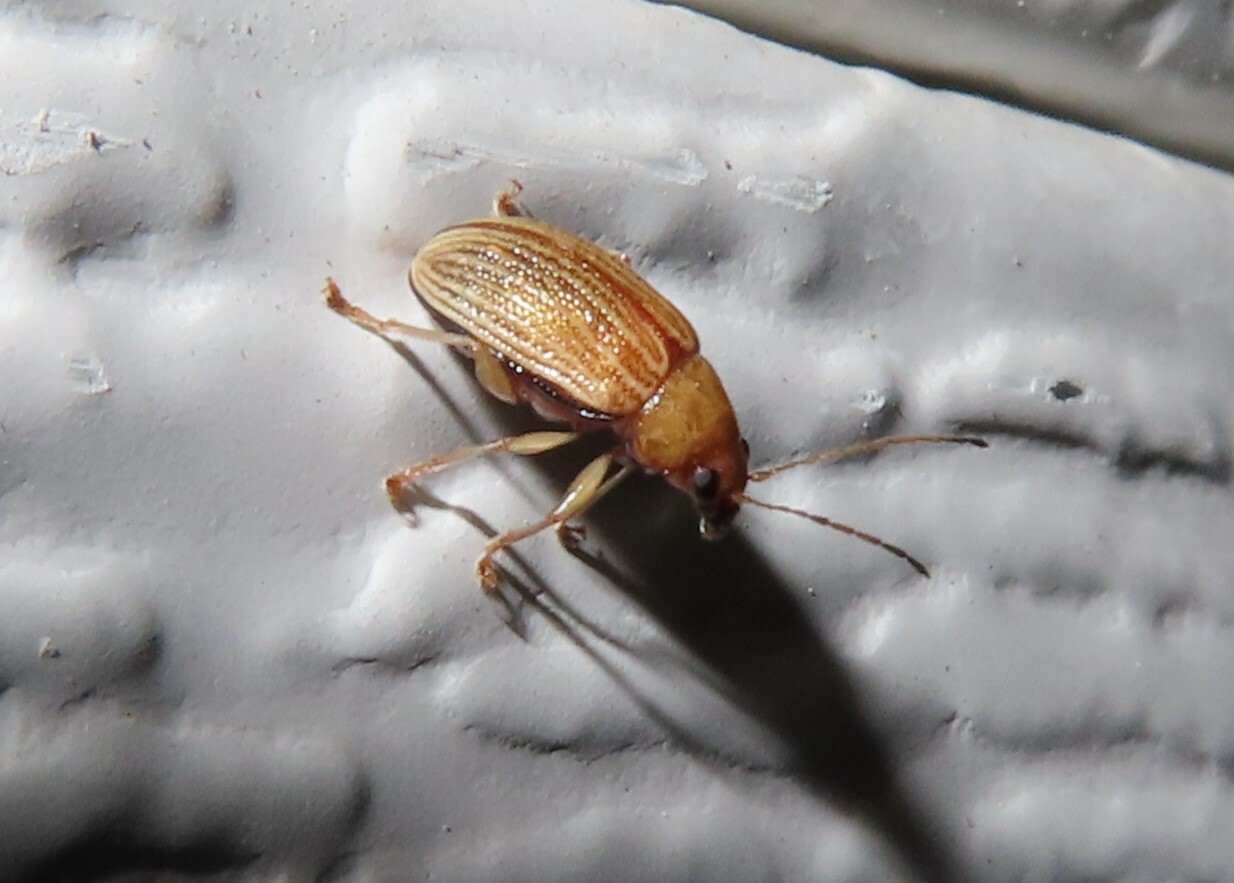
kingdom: Animalia
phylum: Arthropoda
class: Insecta
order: Coleoptera
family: Chrysomelidae
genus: Colaspis
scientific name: Colaspis brunnea
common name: Grape colaspis
